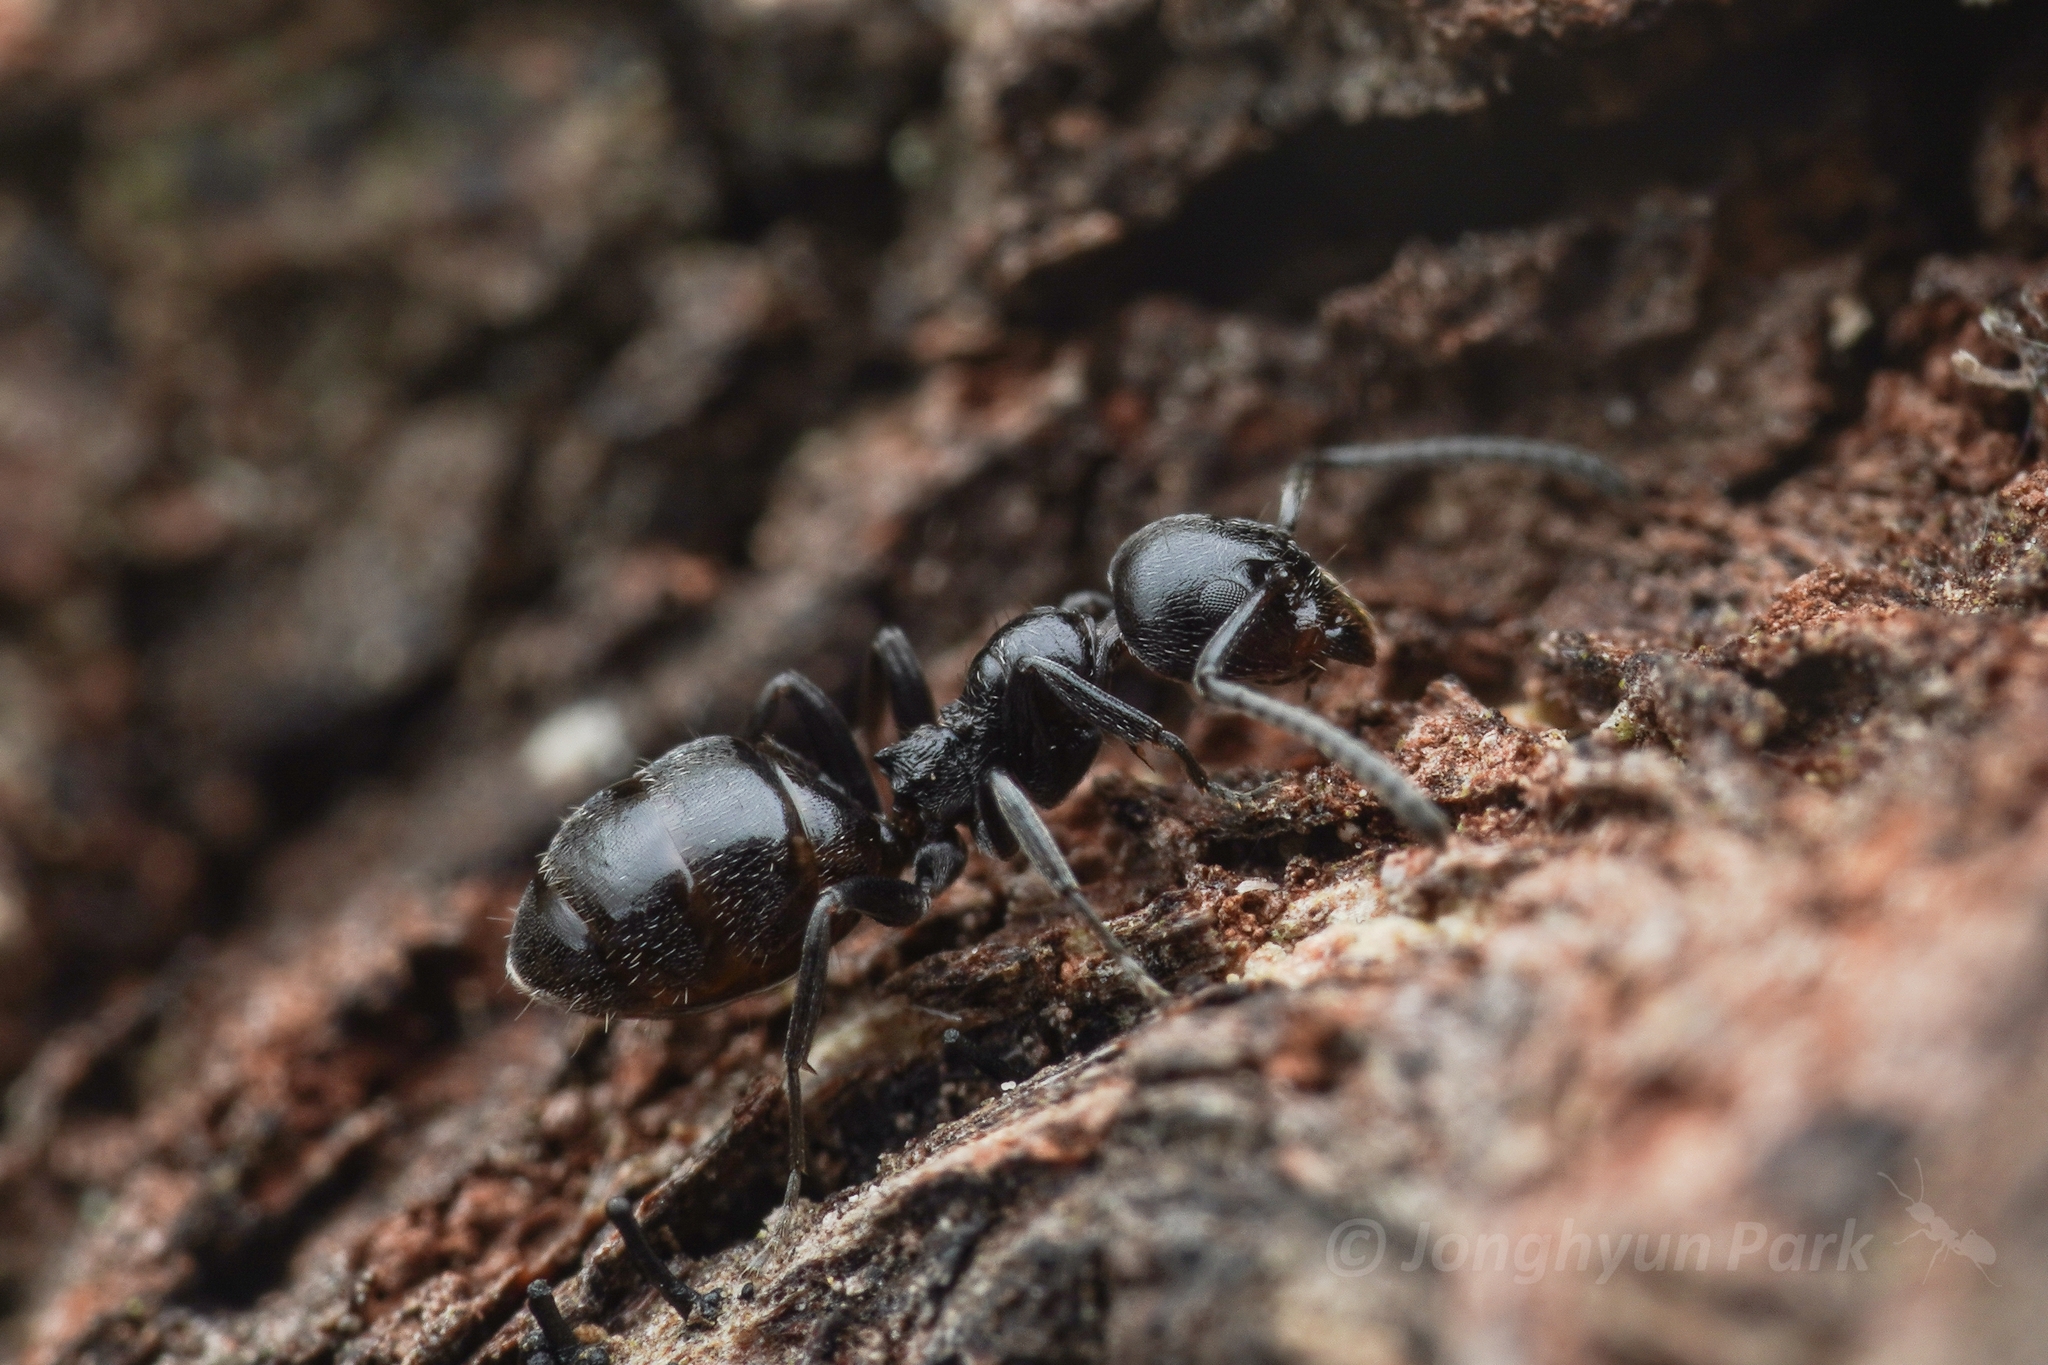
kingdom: Animalia
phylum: Arthropoda
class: Insecta
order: Hymenoptera
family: Formicidae
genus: Axinidris
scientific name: Axinidris lignicola
